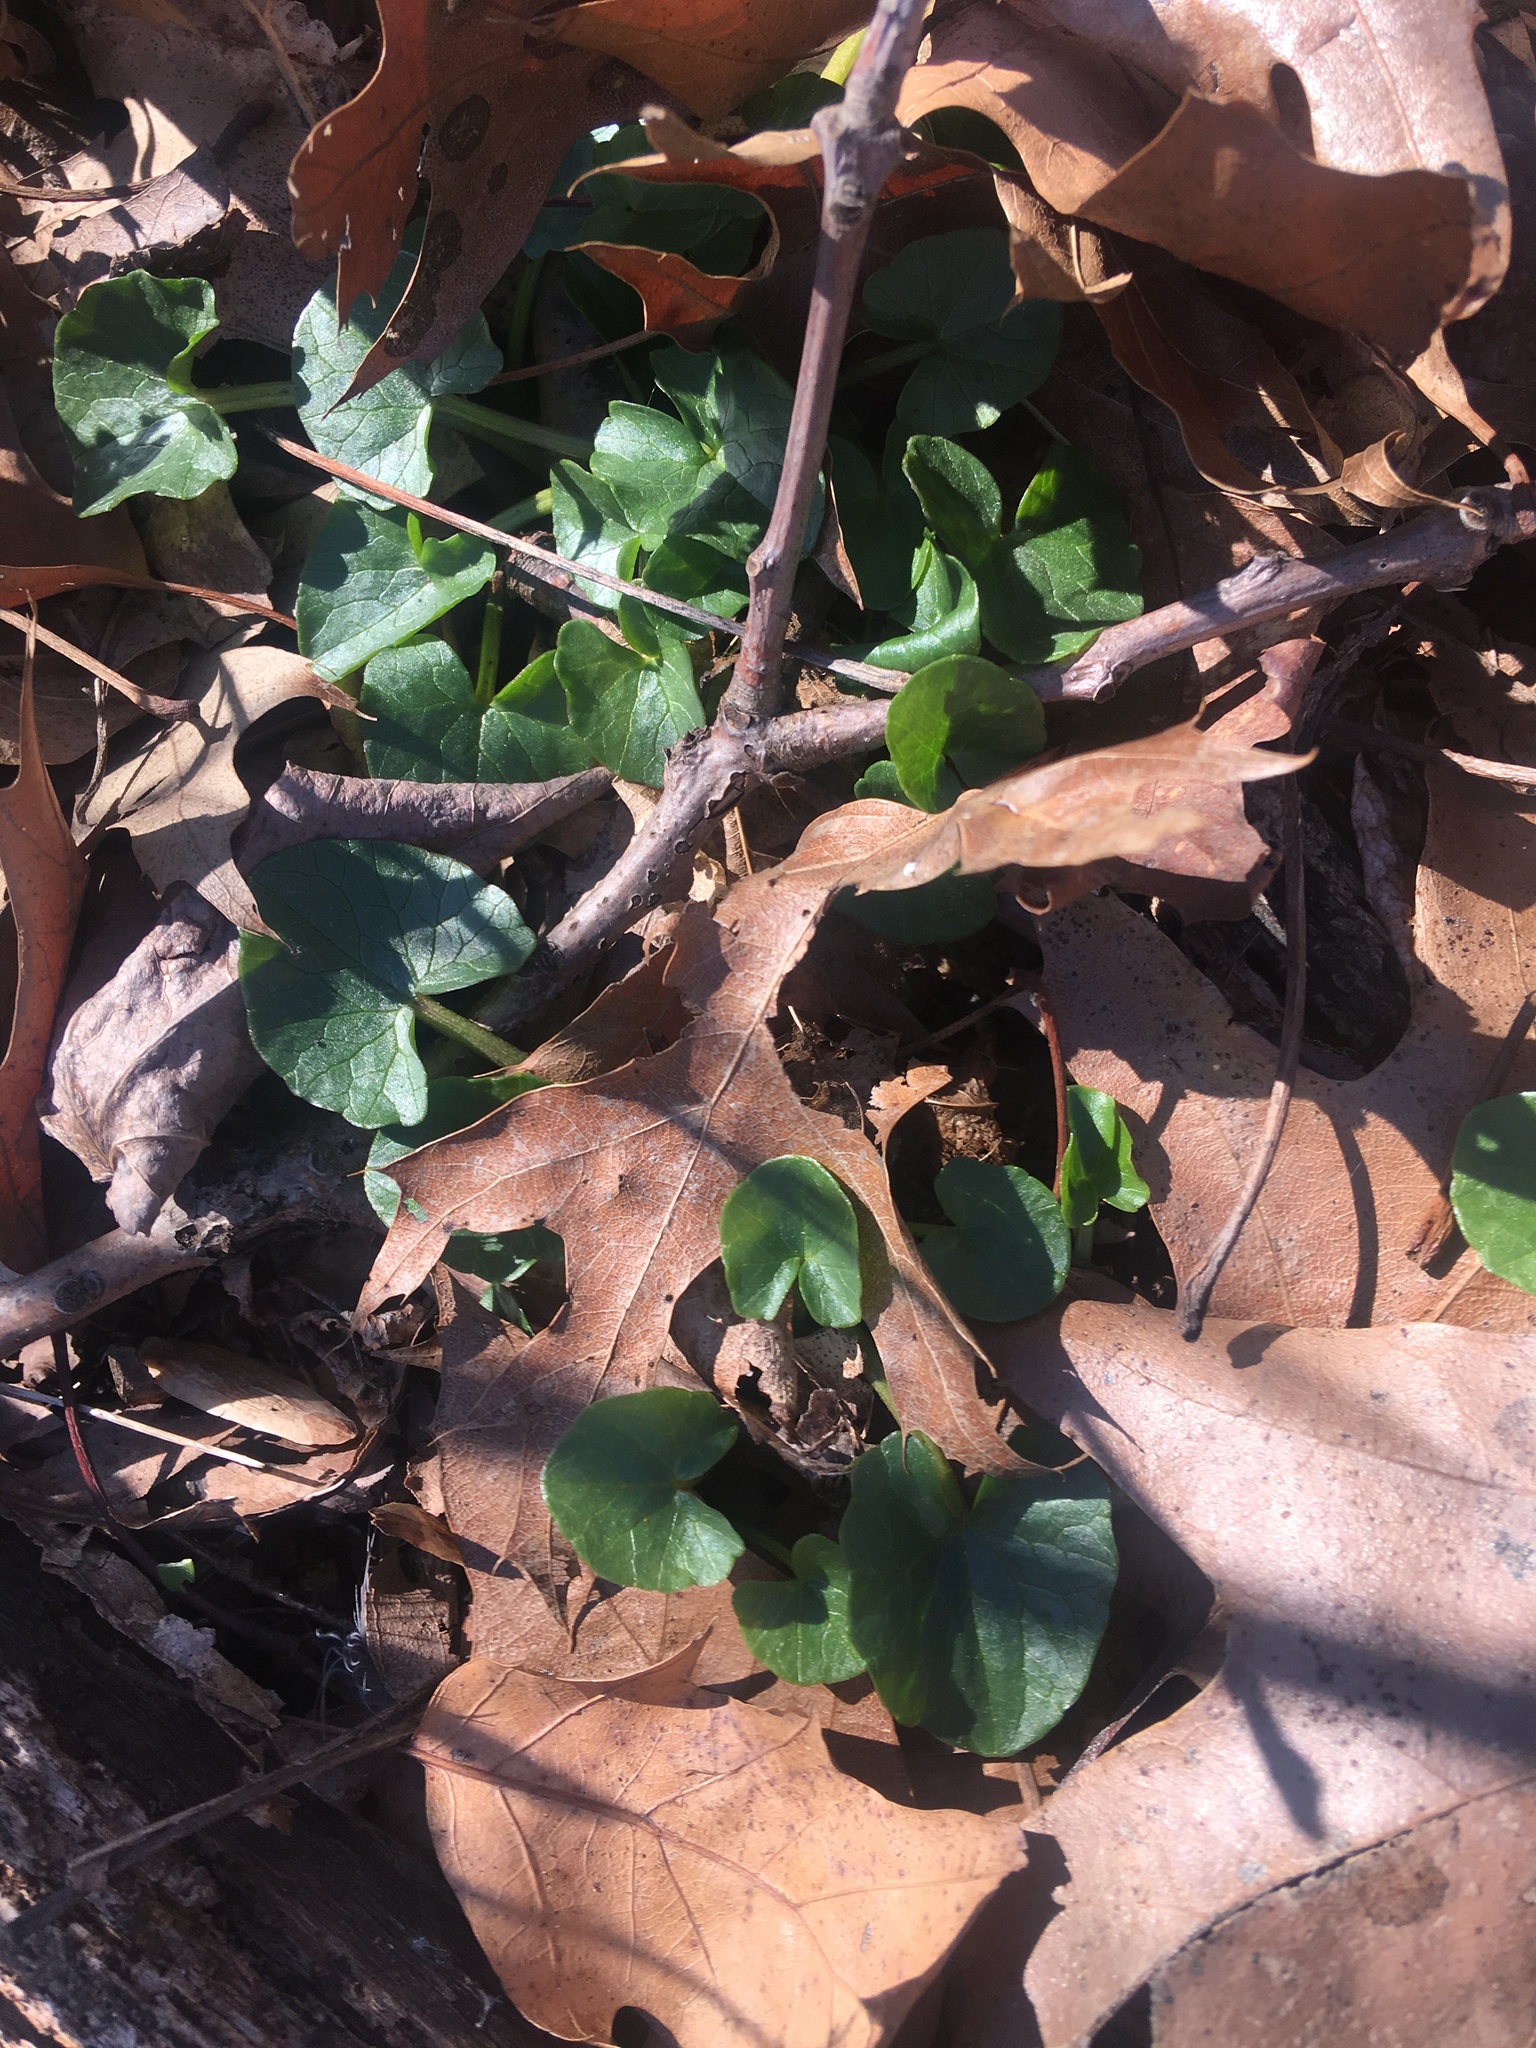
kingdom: Plantae
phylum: Tracheophyta
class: Magnoliopsida
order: Ranunculales
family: Ranunculaceae
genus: Ficaria
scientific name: Ficaria verna
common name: Lesser celandine
